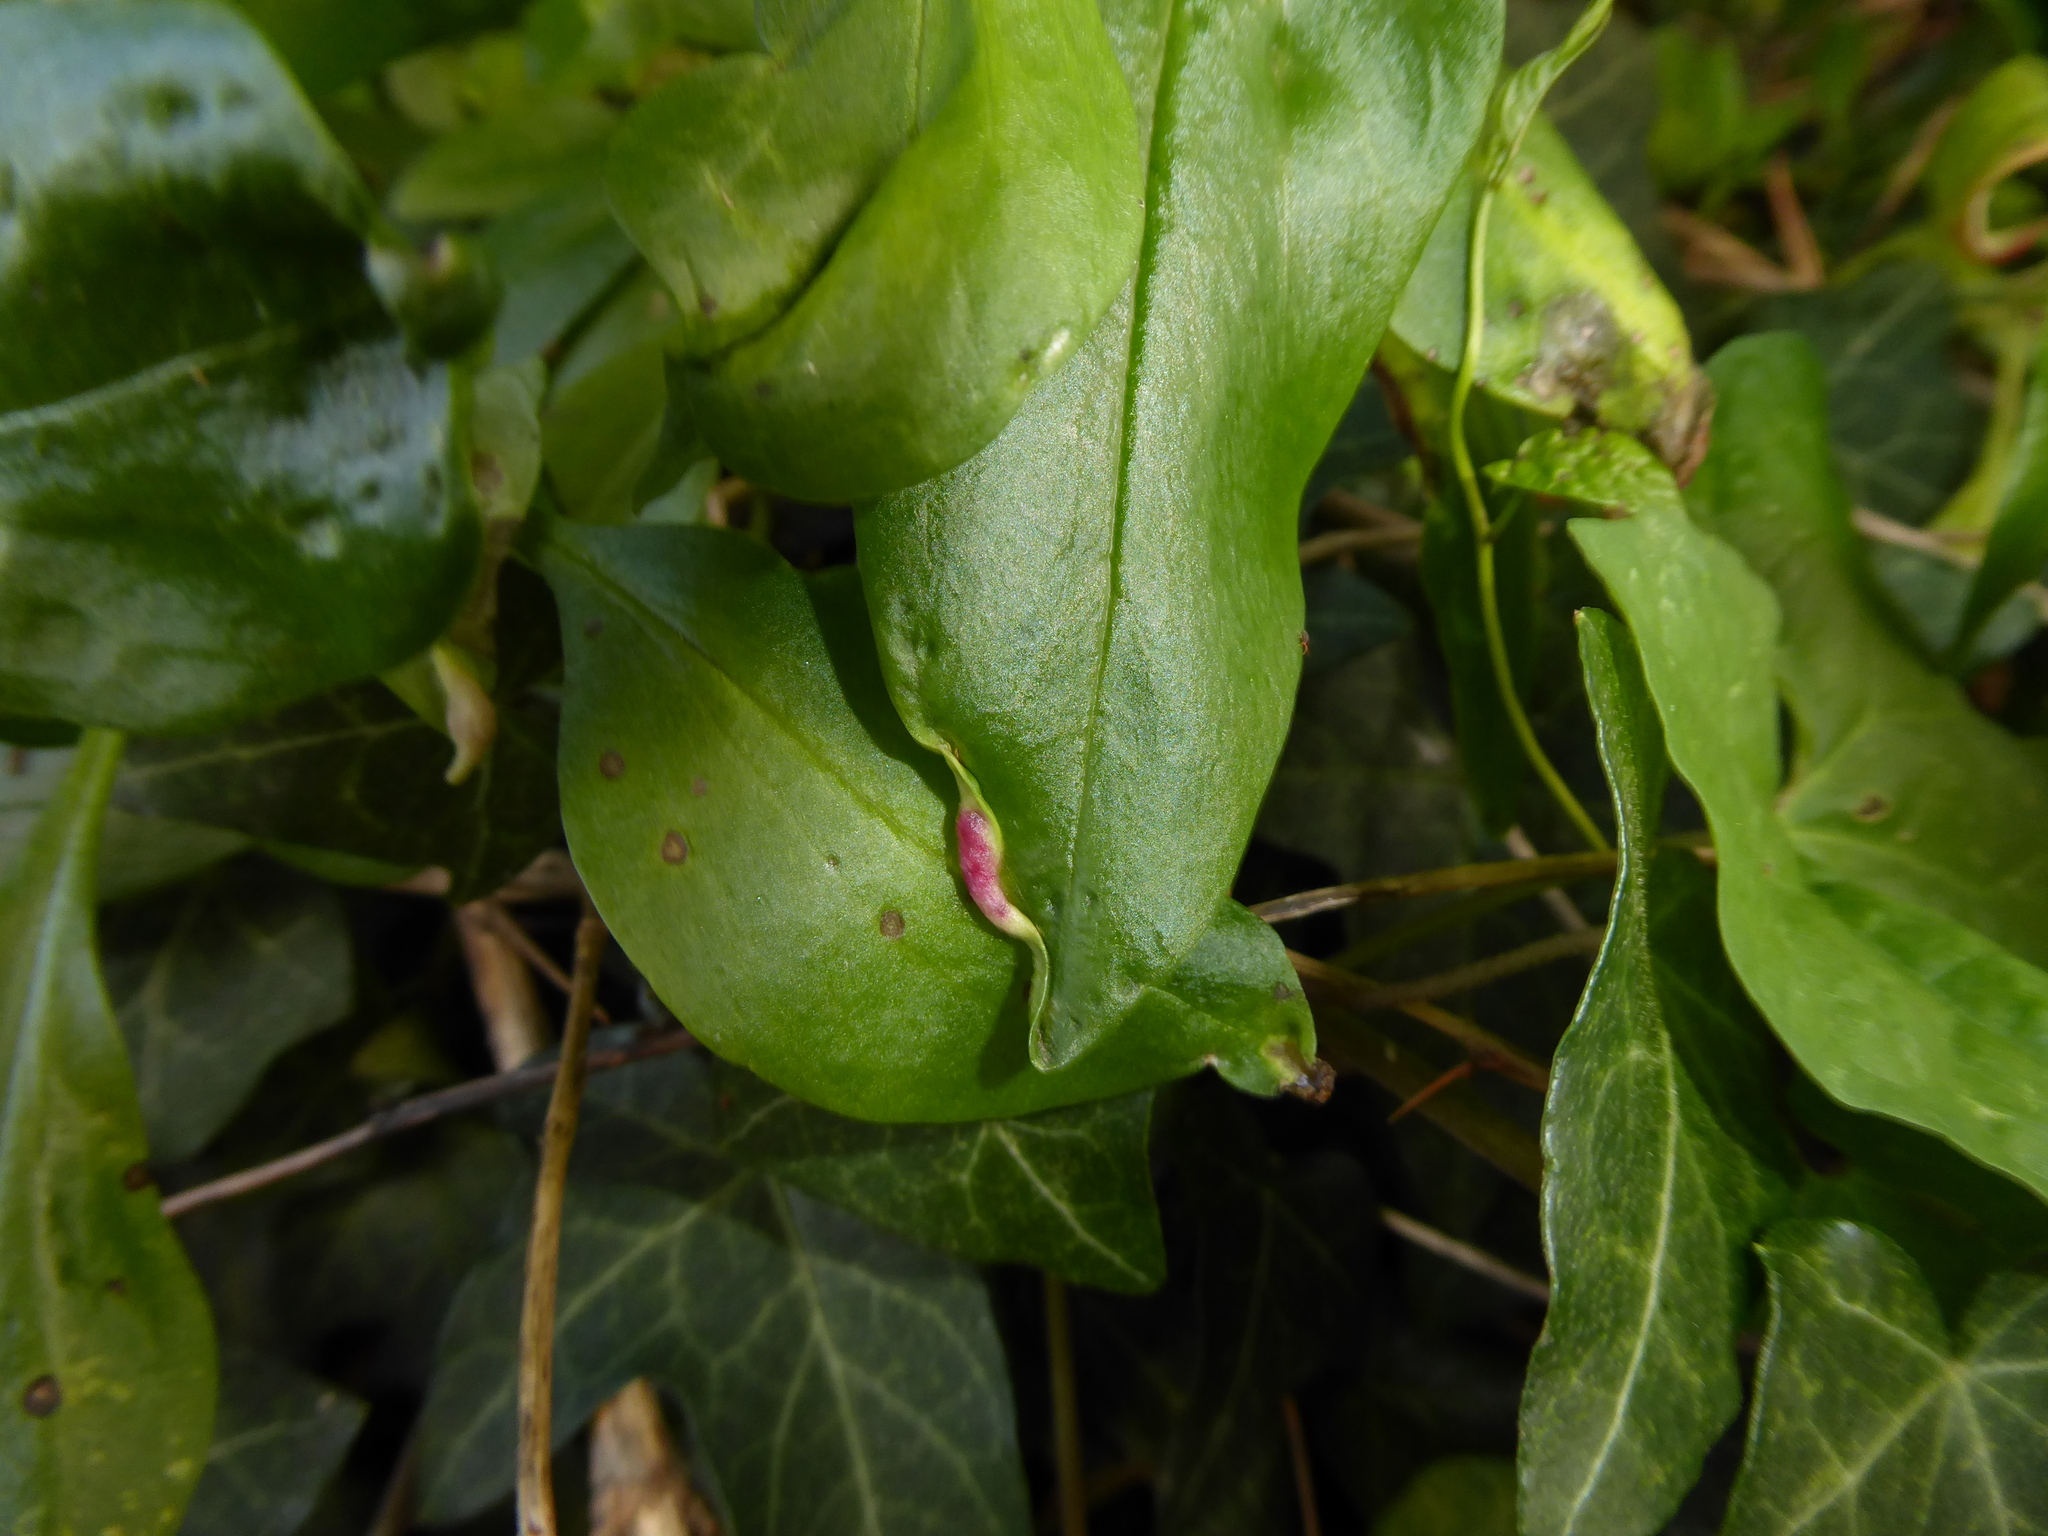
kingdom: Animalia
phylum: Arthropoda
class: Insecta
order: Hemiptera
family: Triozidae
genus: Trioza
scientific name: Trioza centranthi
